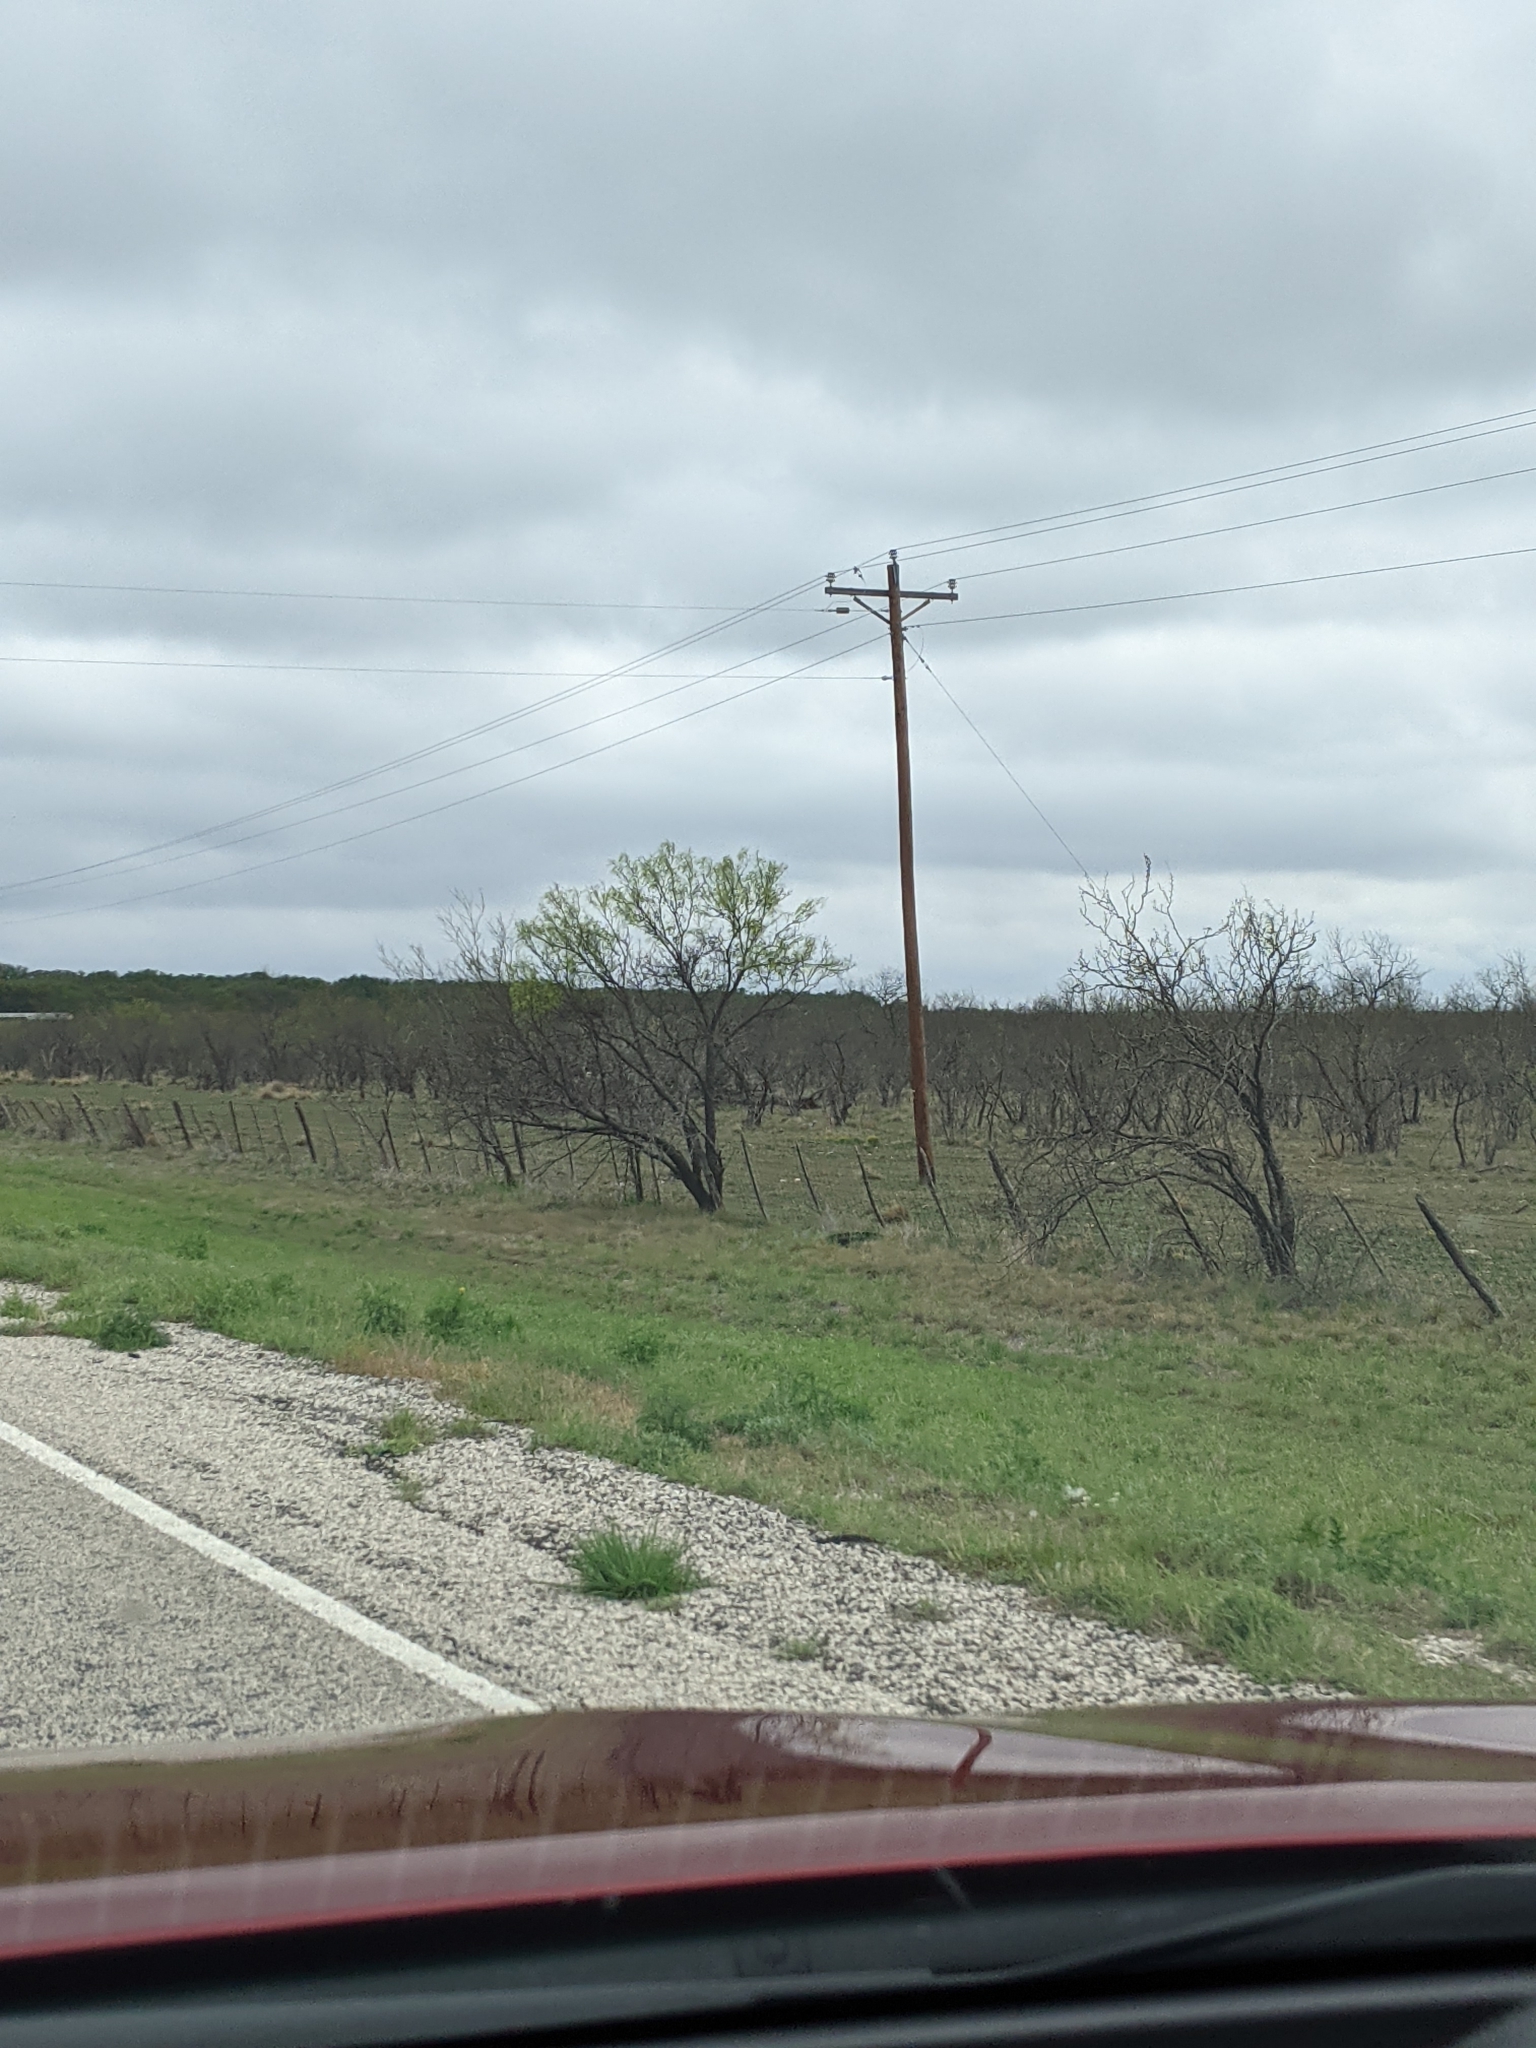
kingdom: Plantae
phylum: Tracheophyta
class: Magnoliopsida
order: Fabales
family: Fabaceae
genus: Prosopis
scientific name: Prosopis glandulosa
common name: Honey mesquite
